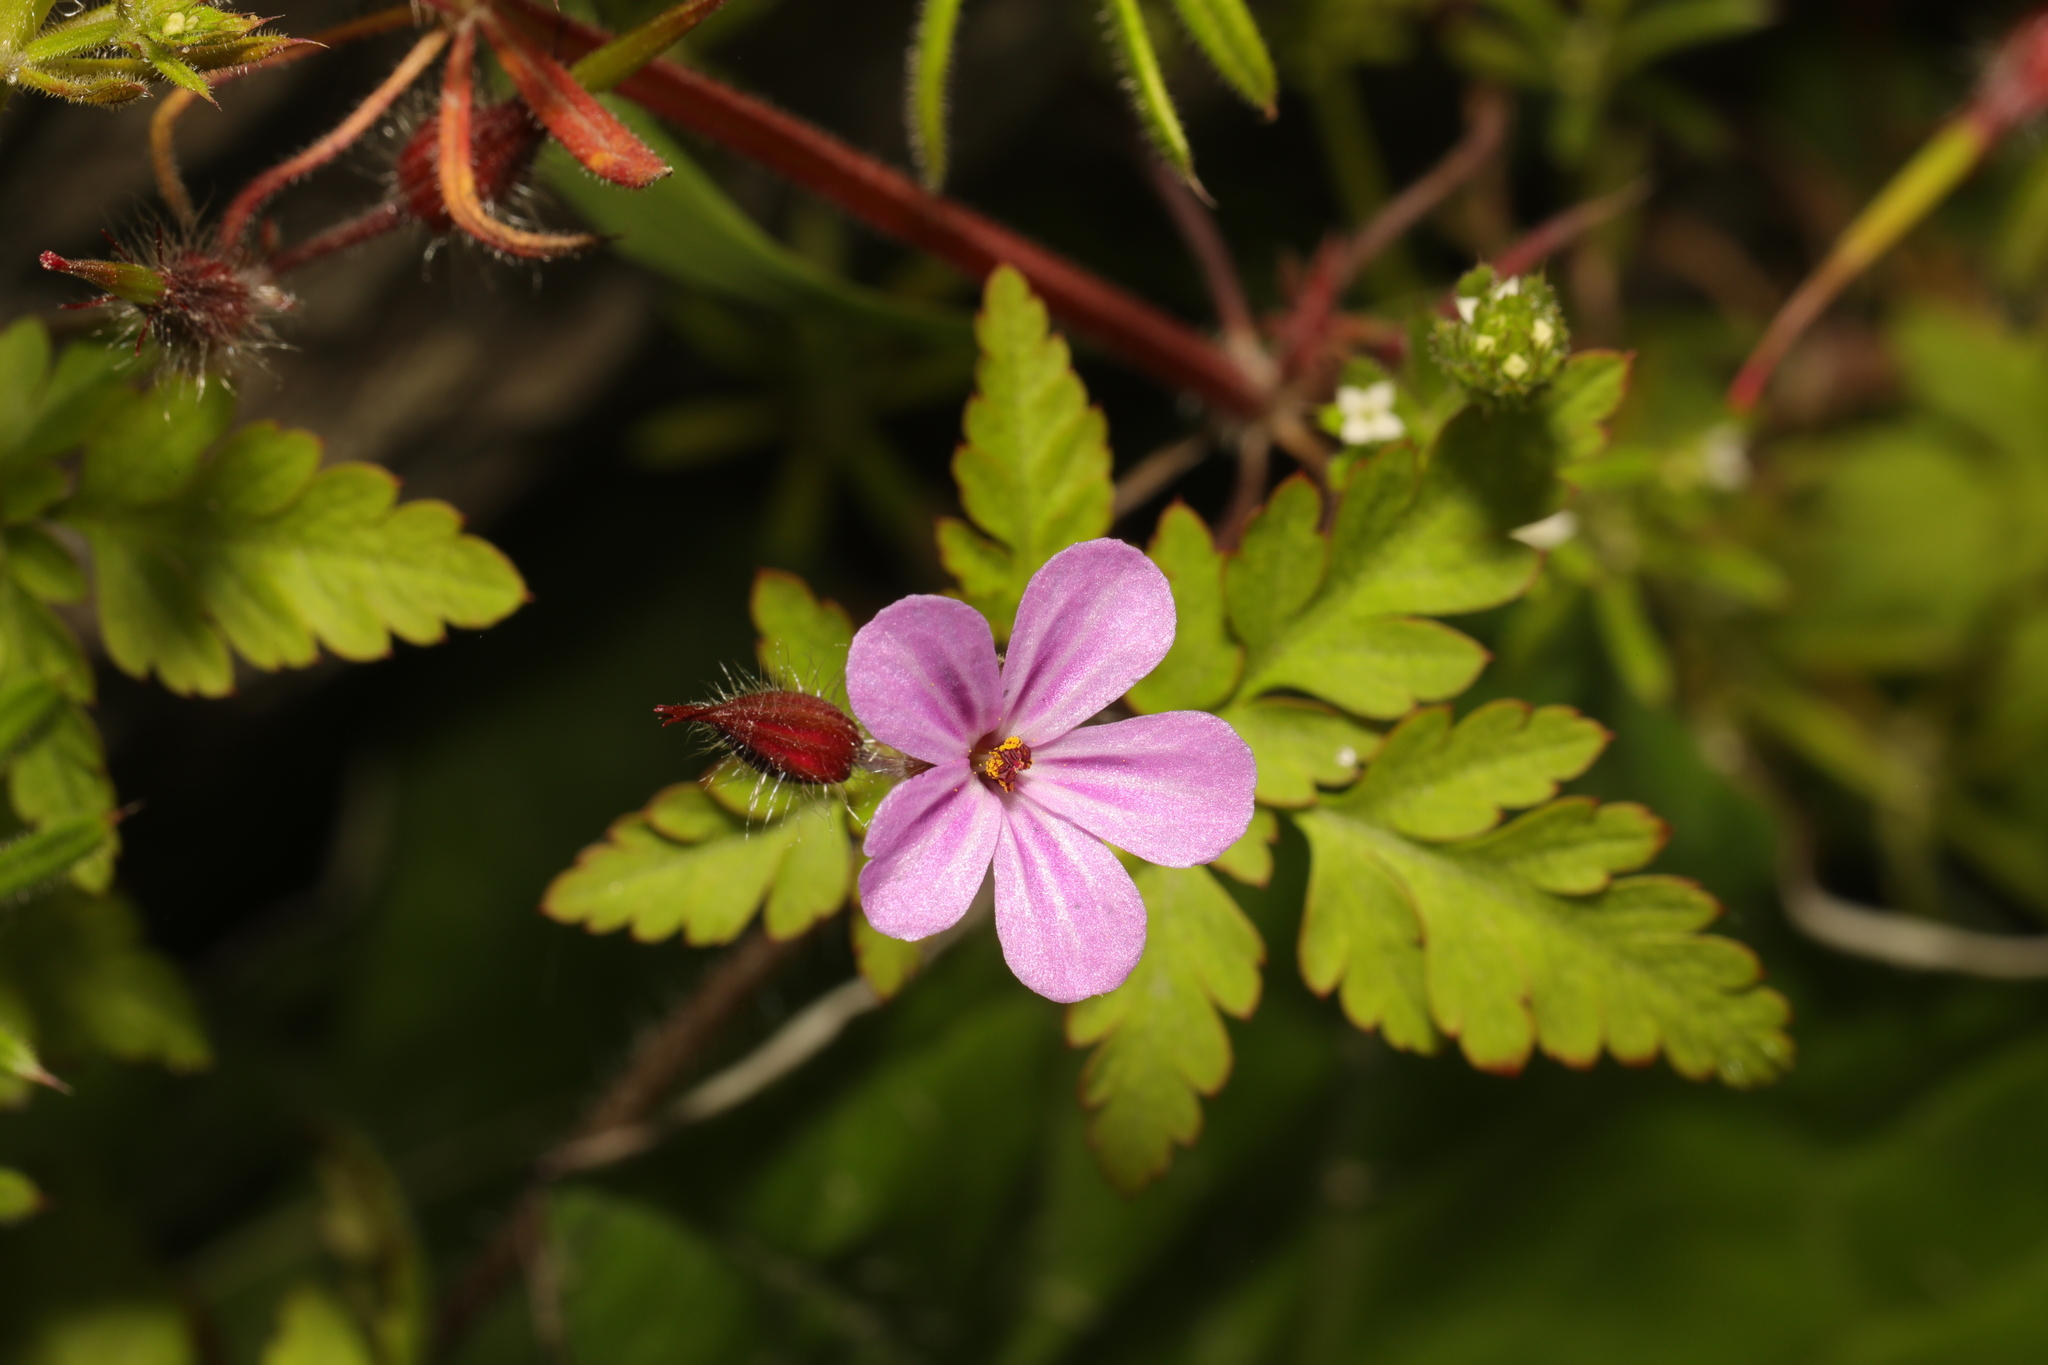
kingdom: Plantae
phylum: Tracheophyta
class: Magnoliopsida
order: Geraniales
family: Geraniaceae
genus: Geranium
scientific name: Geranium robertianum
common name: Herb-robert
